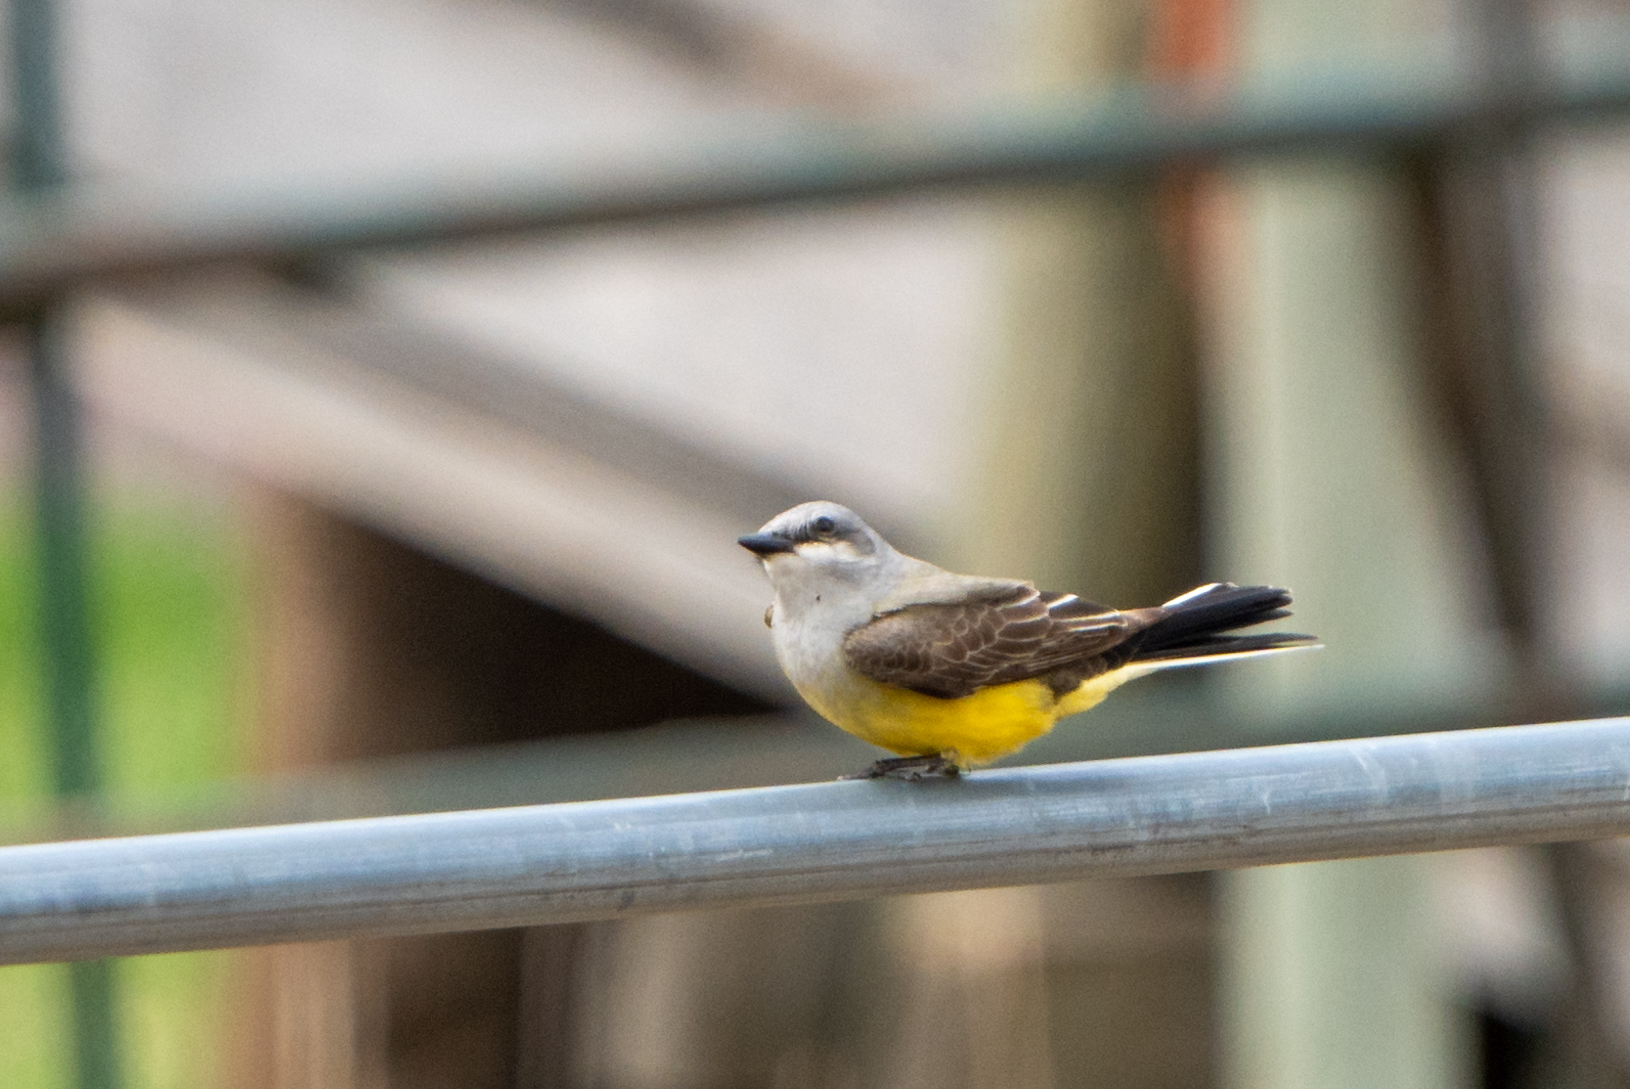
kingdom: Animalia
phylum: Chordata
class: Aves
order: Passeriformes
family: Tyrannidae
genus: Tyrannus
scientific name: Tyrannus verticalis
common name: Western kingbird
